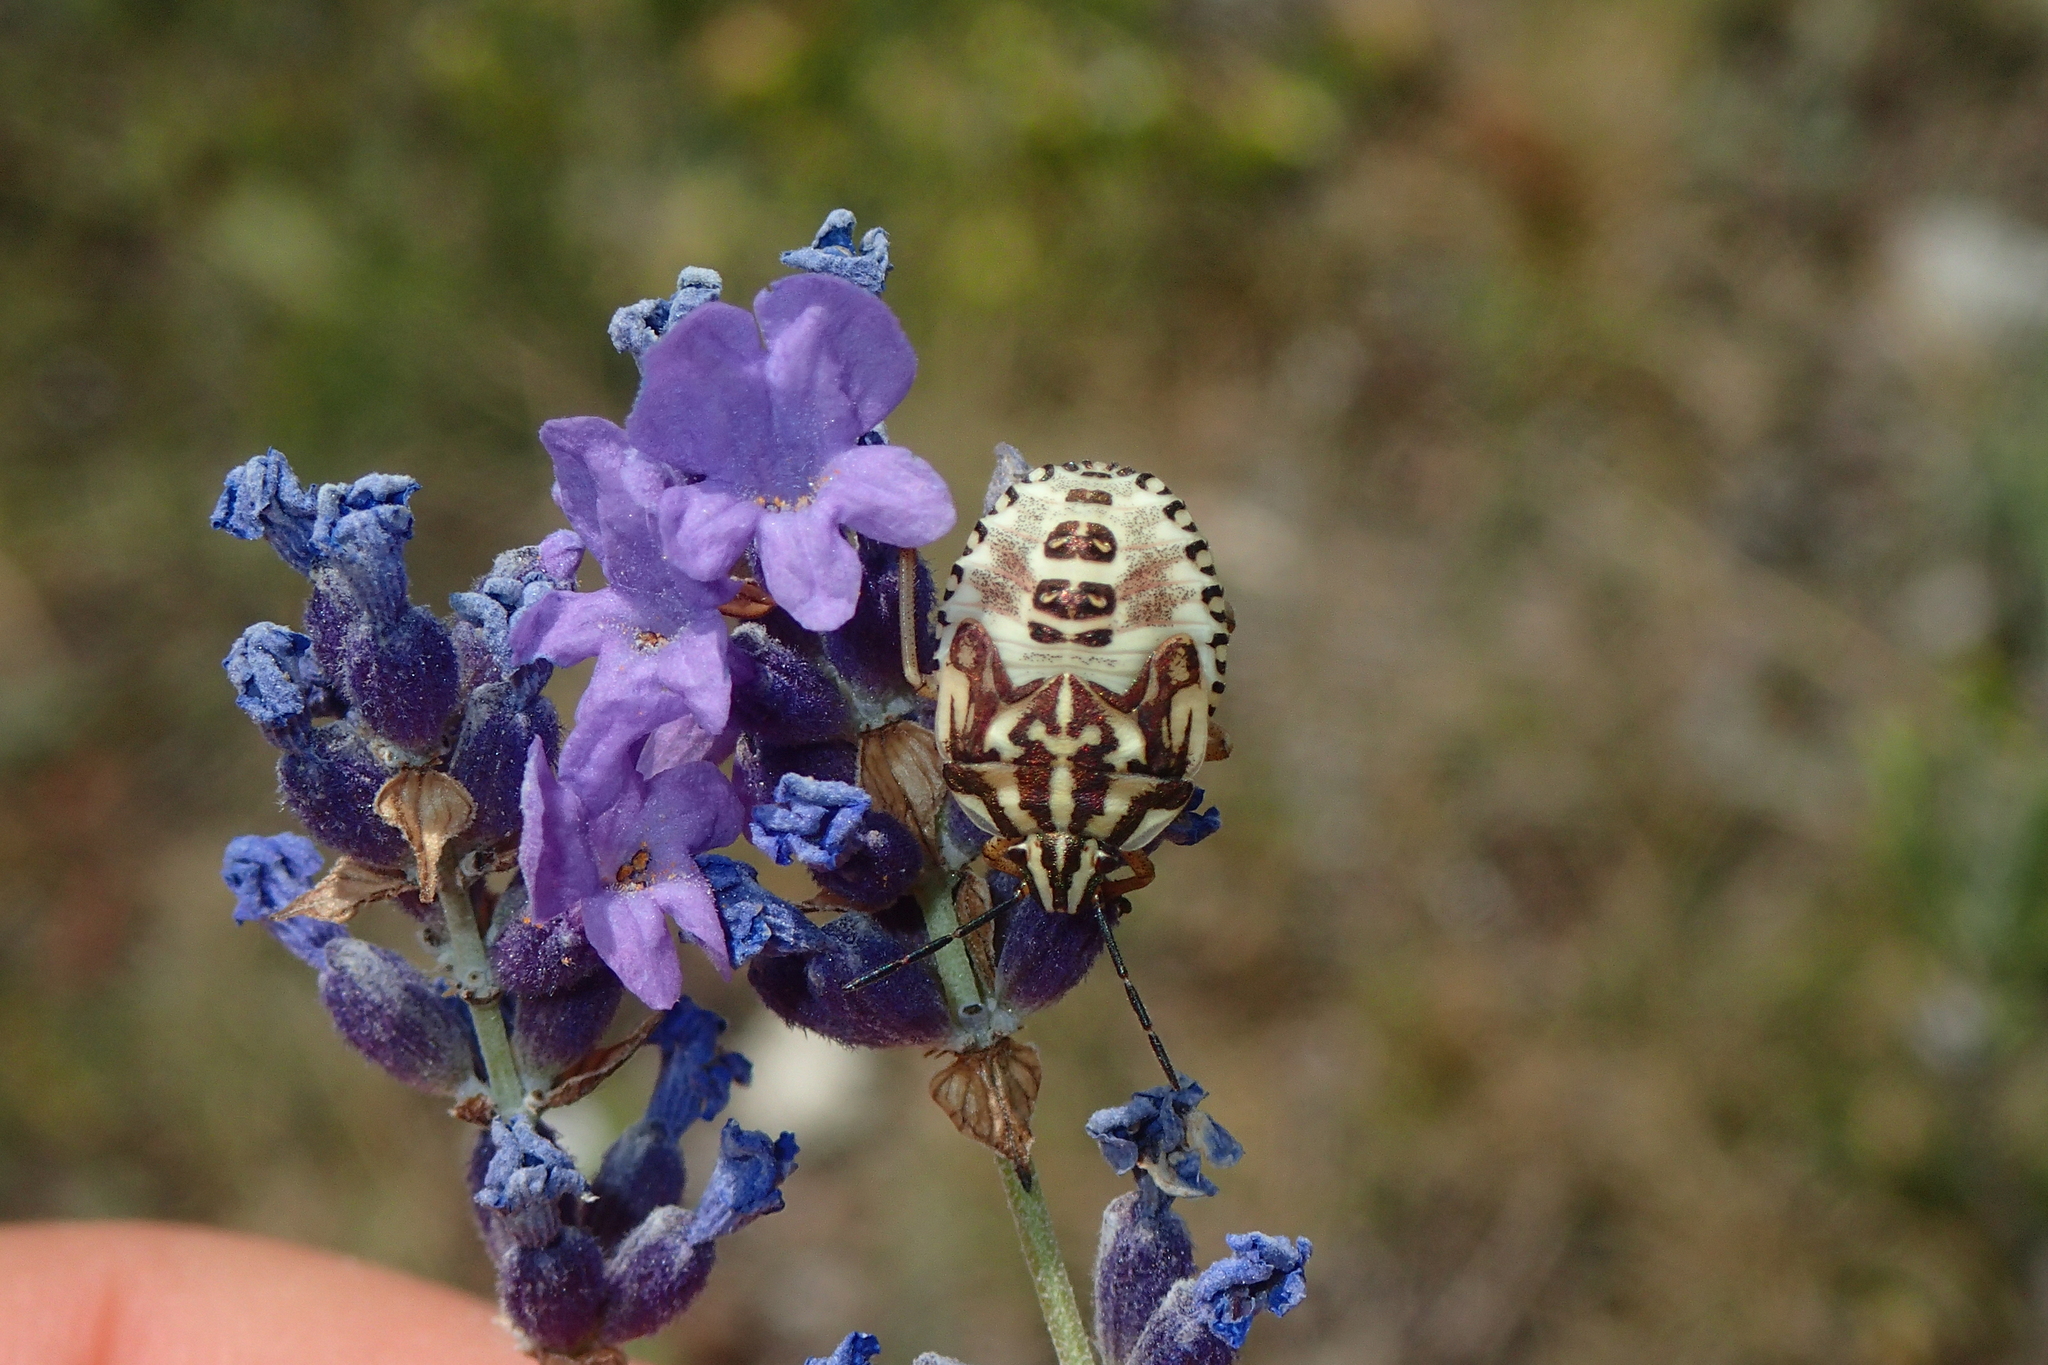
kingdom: Animalia
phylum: Arthropoda
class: Insecta
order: Hemiptera
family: Pentatomidae
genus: Carpocoris
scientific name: Carpocoris purpureipennis
